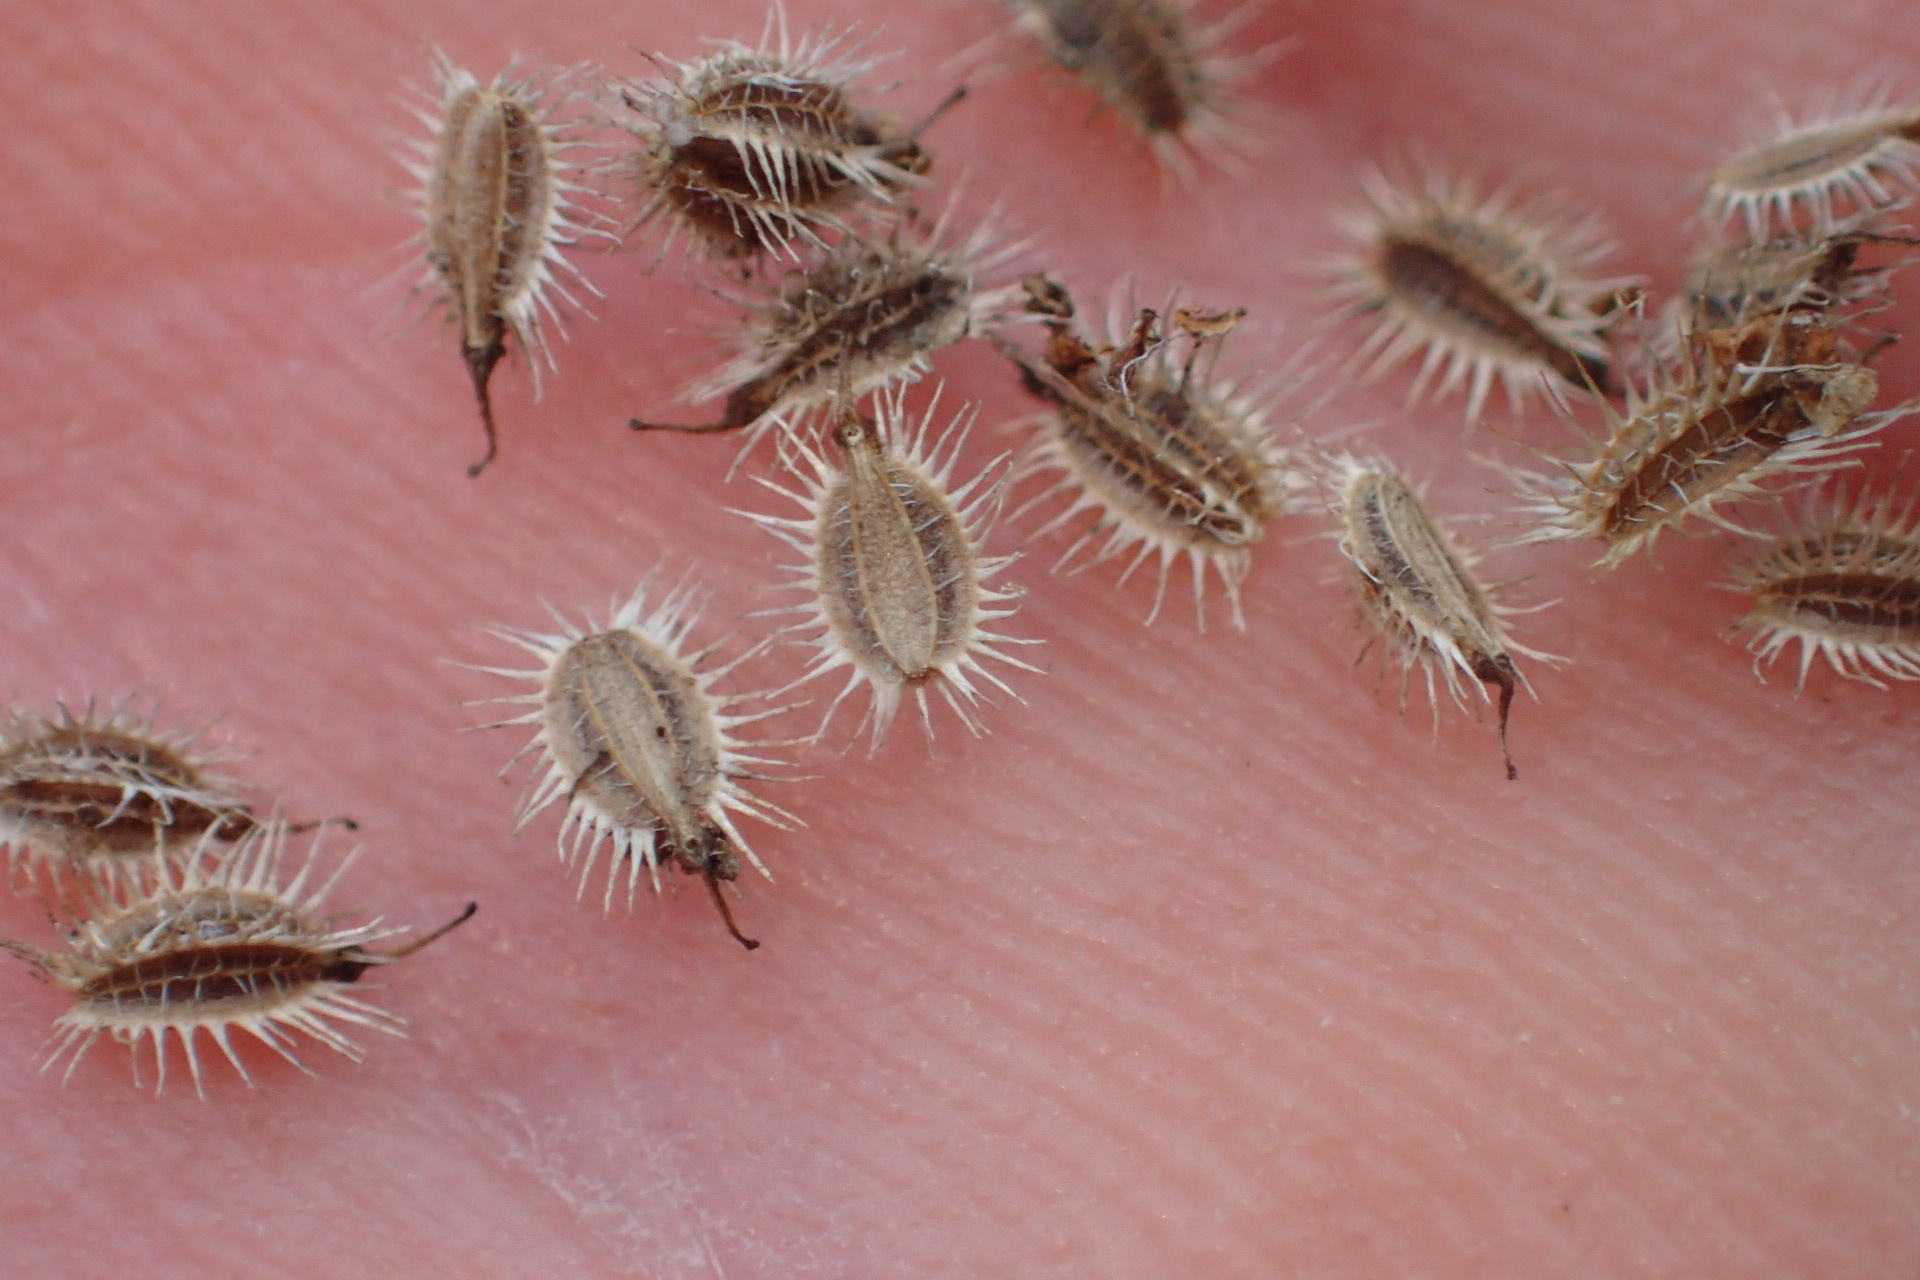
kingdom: Plantae
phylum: Tracheophyta
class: Magnoliopsida
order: Apiales
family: Apiaceae
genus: Daucus
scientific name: Daucus carota
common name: Wild carrot
